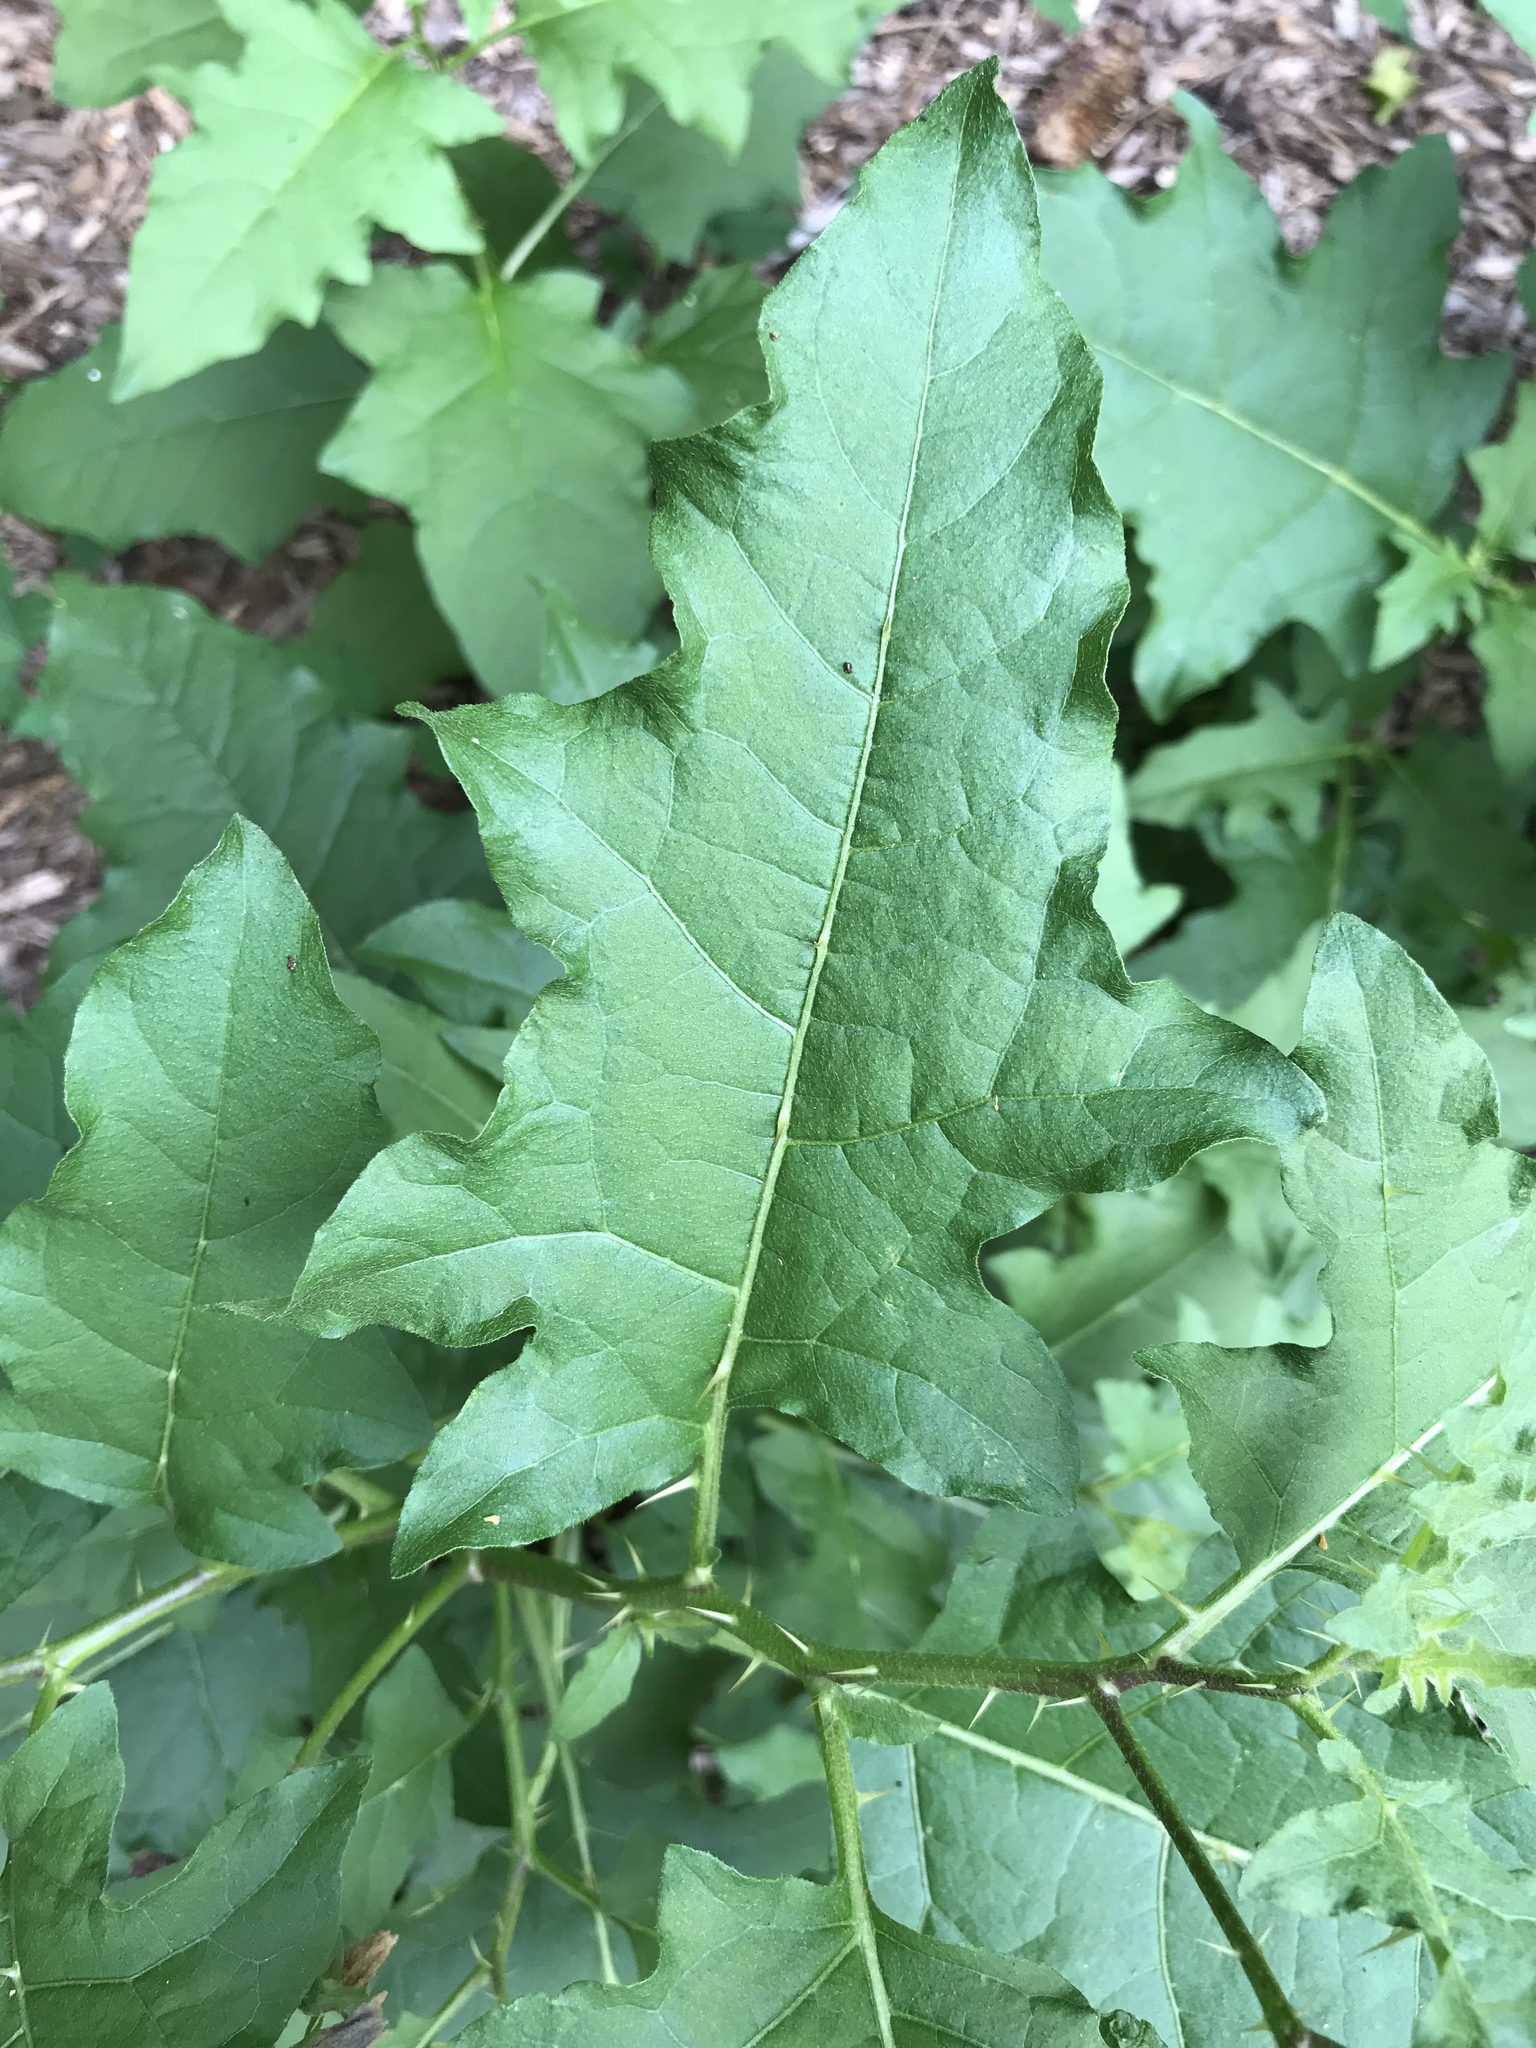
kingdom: Plantae
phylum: Tracheophyta
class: Magnoliopsida
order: Solanales
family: Solanaceae
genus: Solanum
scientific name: Solanum carolinense
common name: Horse-nettle
